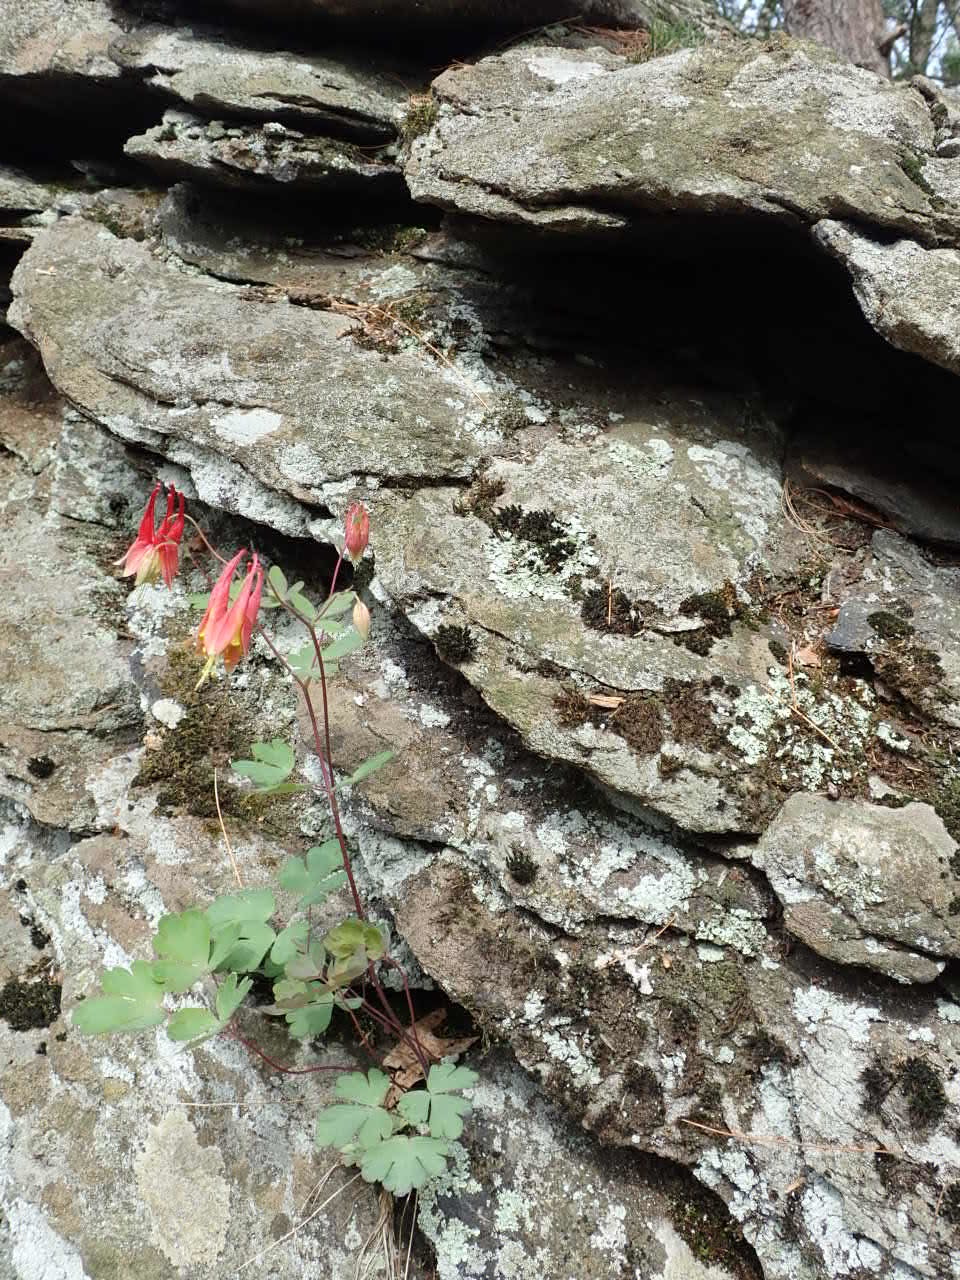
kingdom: Plantae
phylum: Tracheophyta
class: Magnoliopsida
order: Ranunculales
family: Ranunculaceae
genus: Aquilegia
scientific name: Aquilegia canadensis
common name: American columbine
